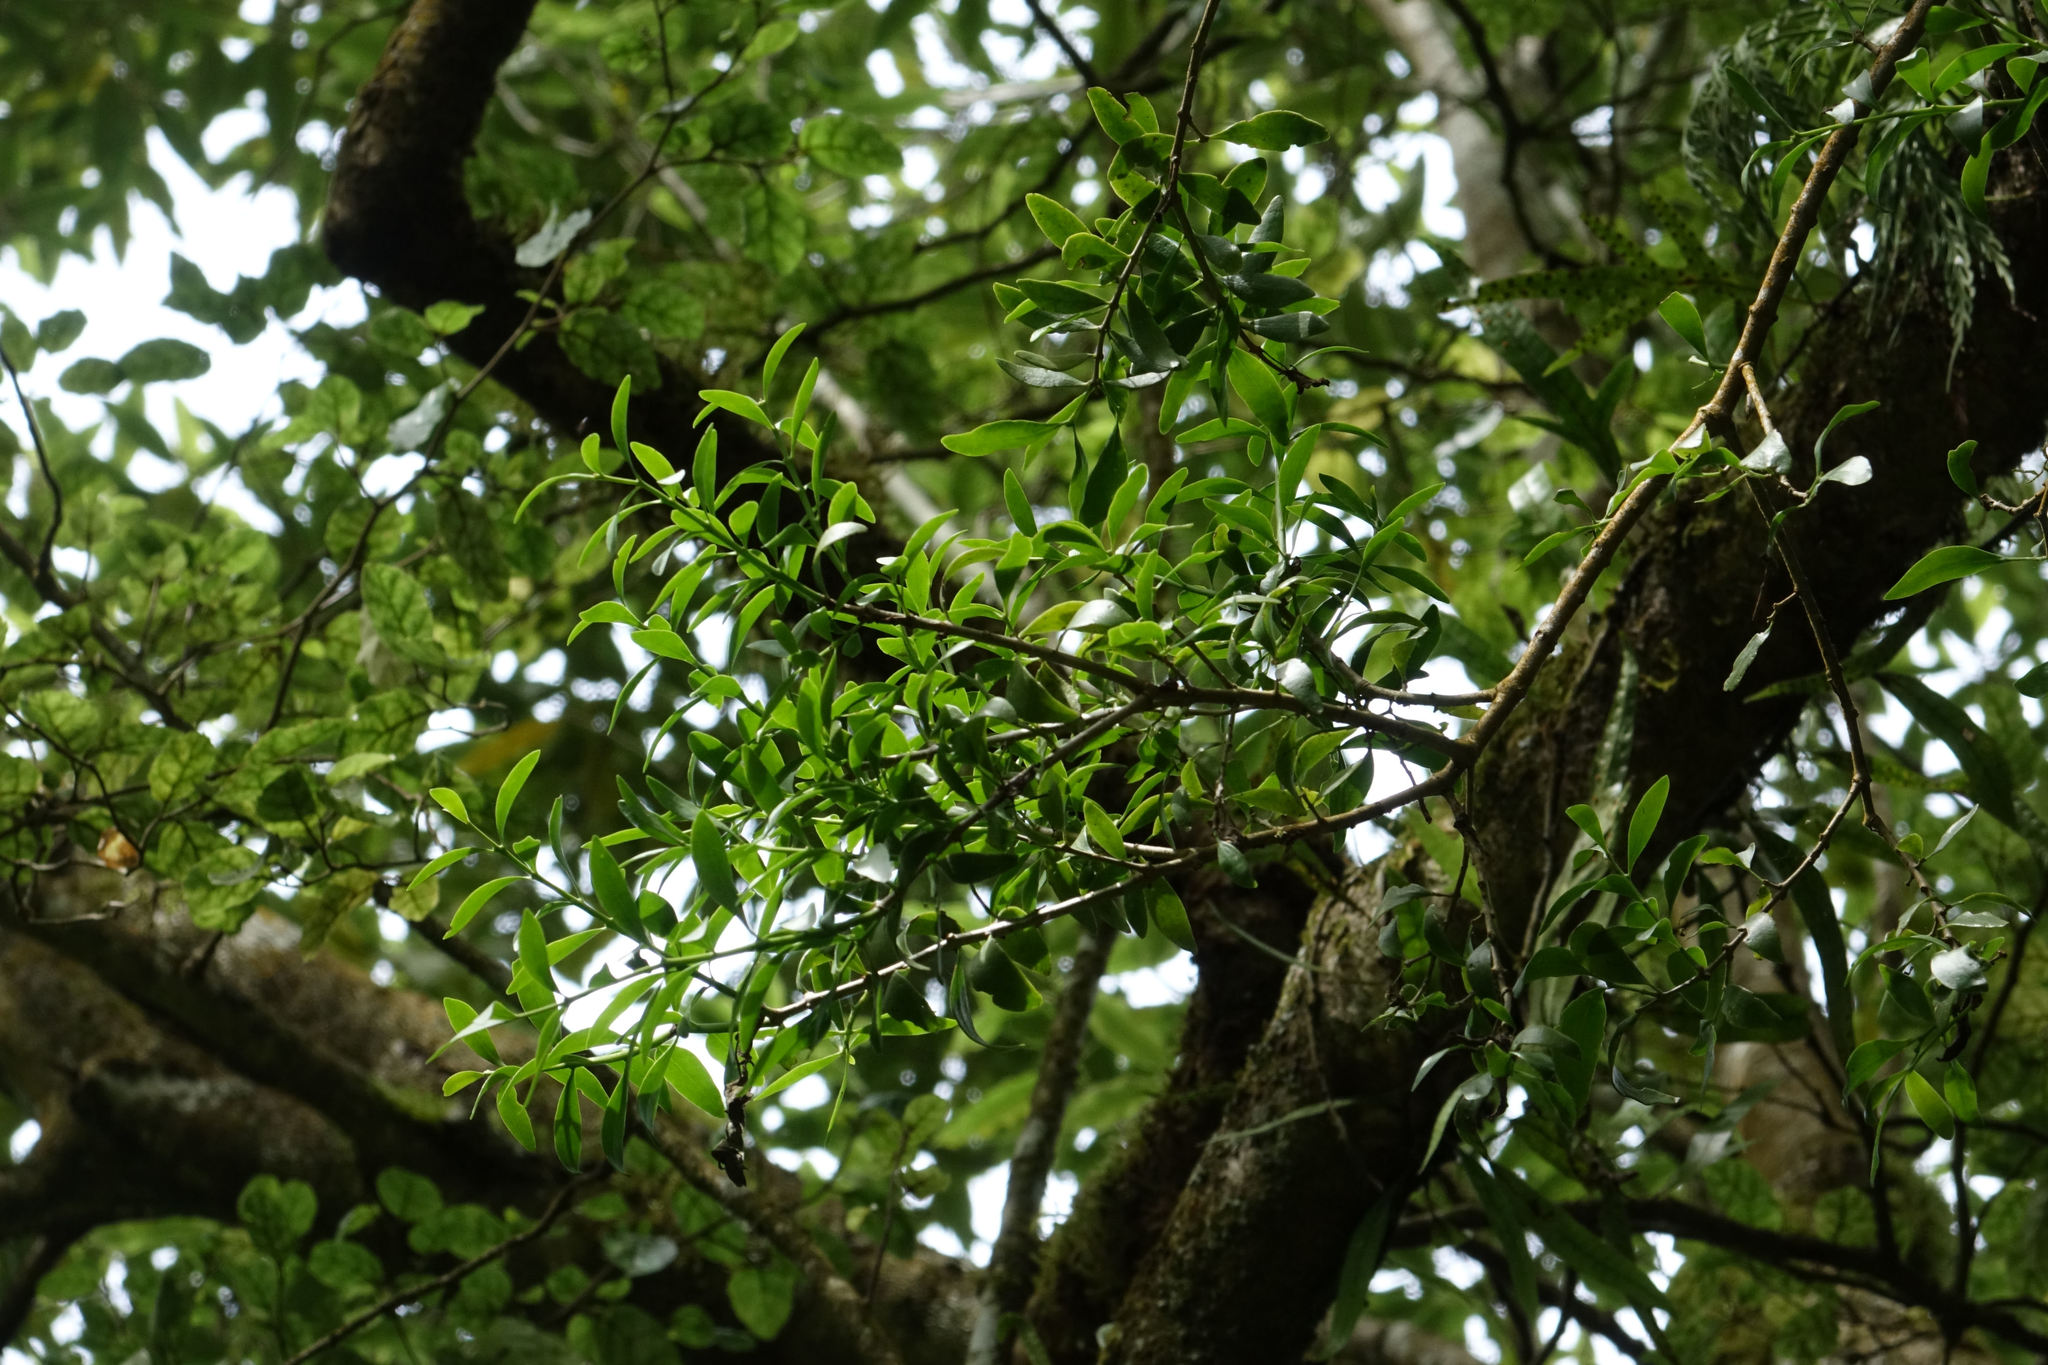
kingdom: Plantae
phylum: Tracheophyta
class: Magnoliopsida
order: Santalales
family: Loranthaceae
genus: Tupeia
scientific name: Tupeia antarctica
